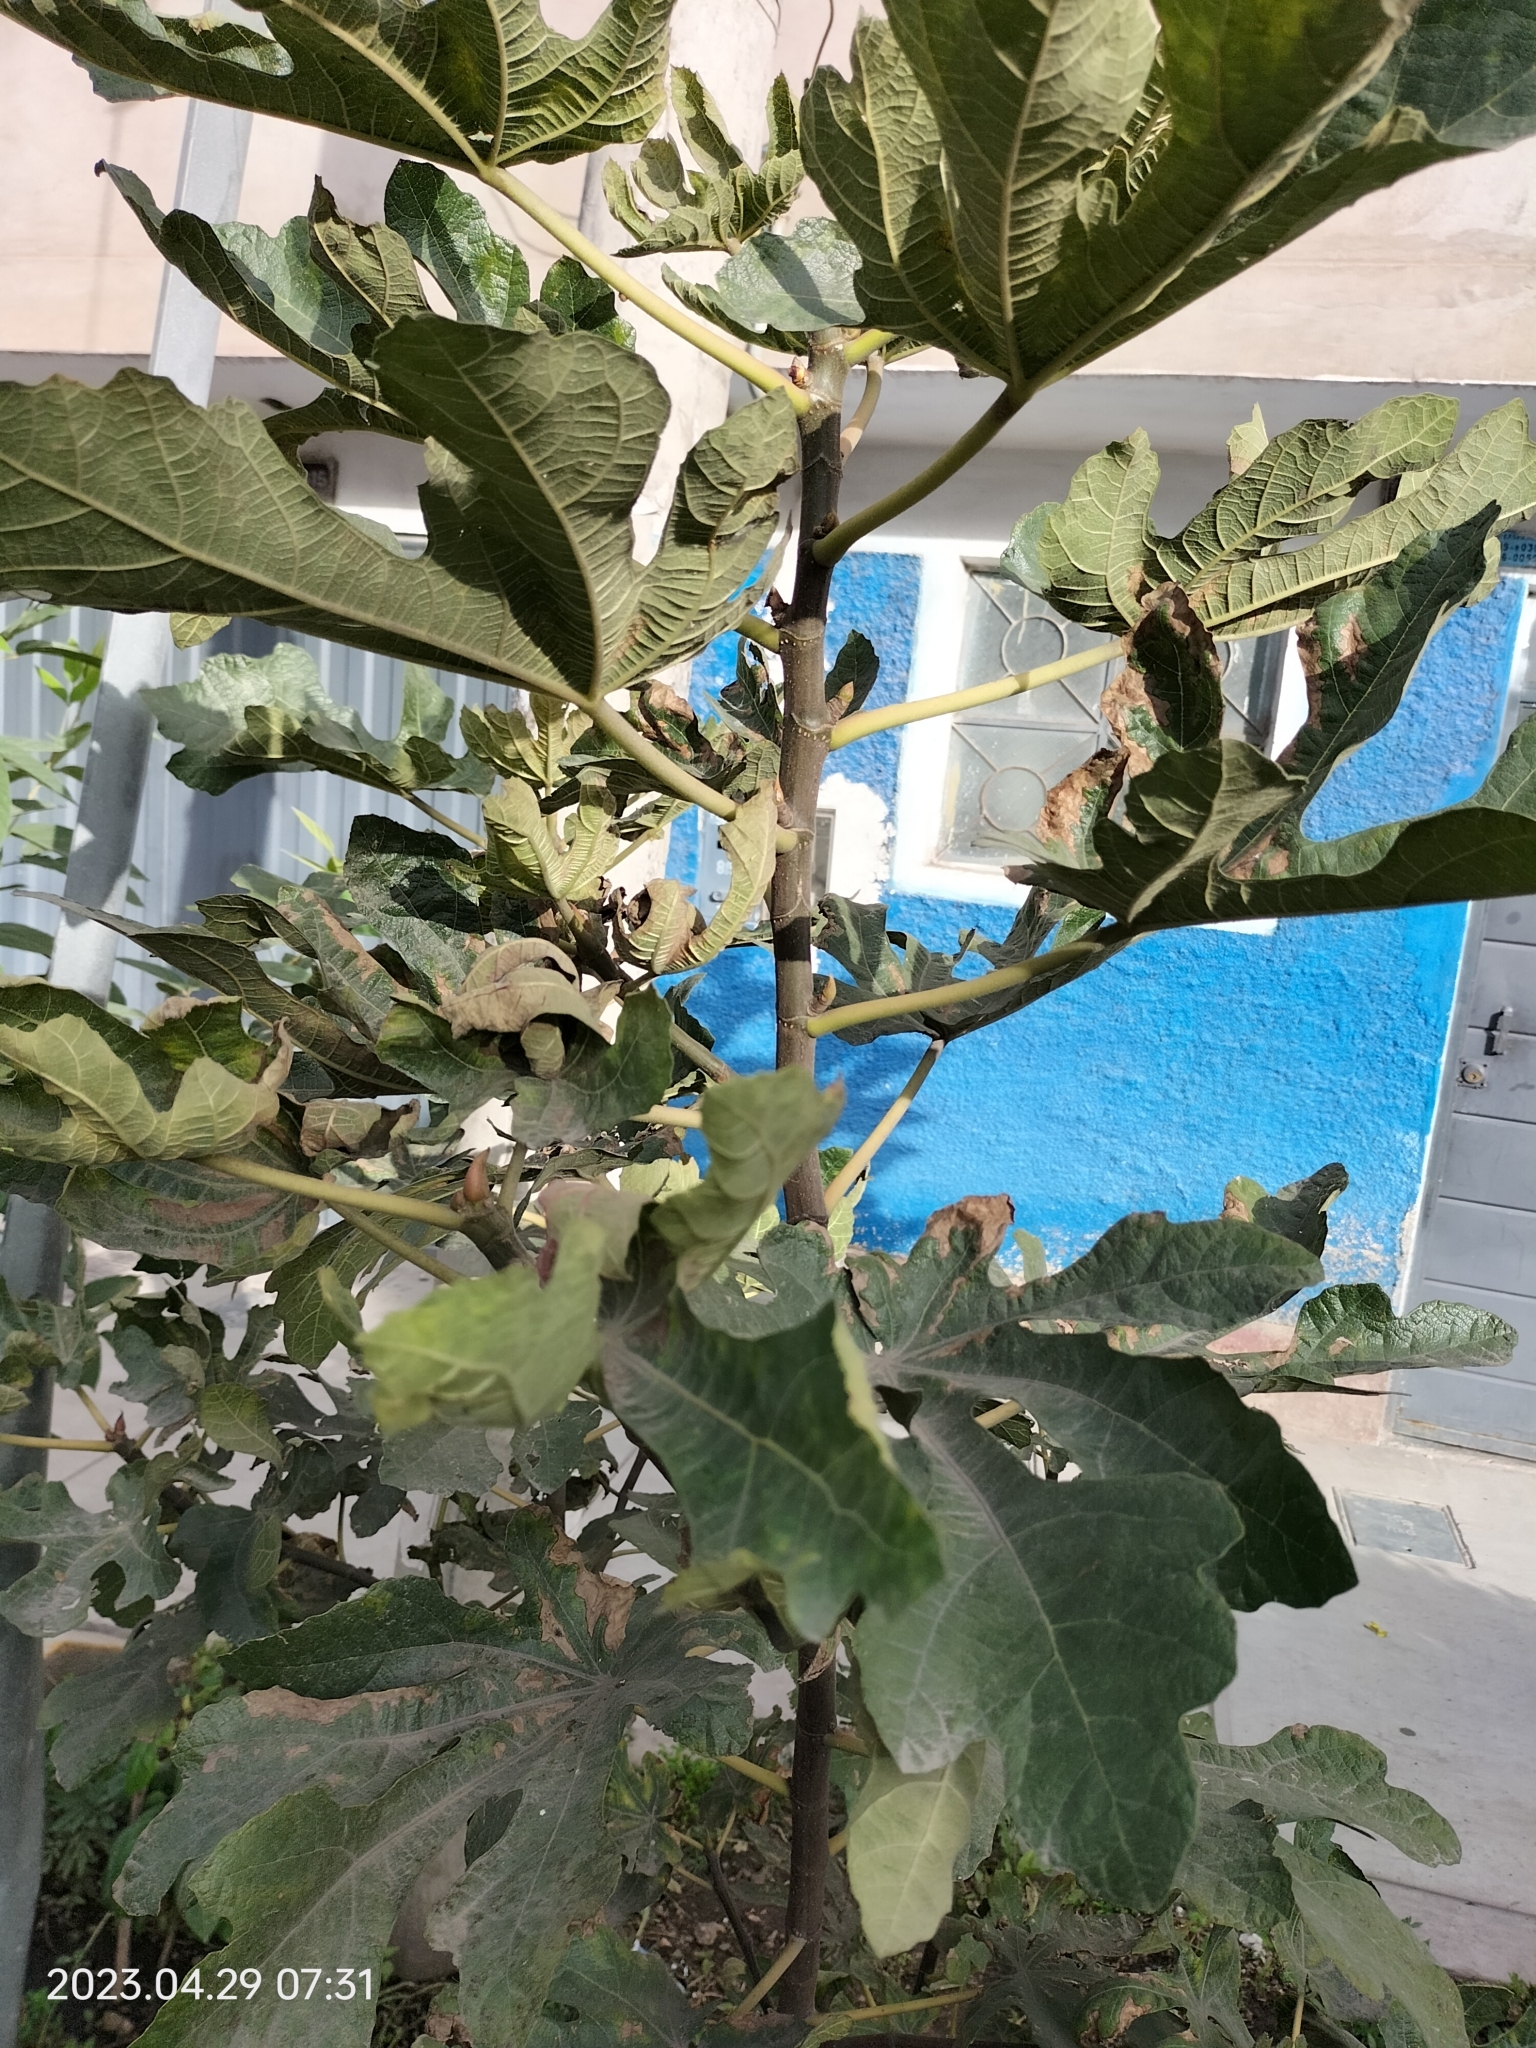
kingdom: Plantae
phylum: Tracheophyta
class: Magnoliopsida
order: Rosales
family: Moraceae
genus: Ficus
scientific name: Ficus carica
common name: Fig
